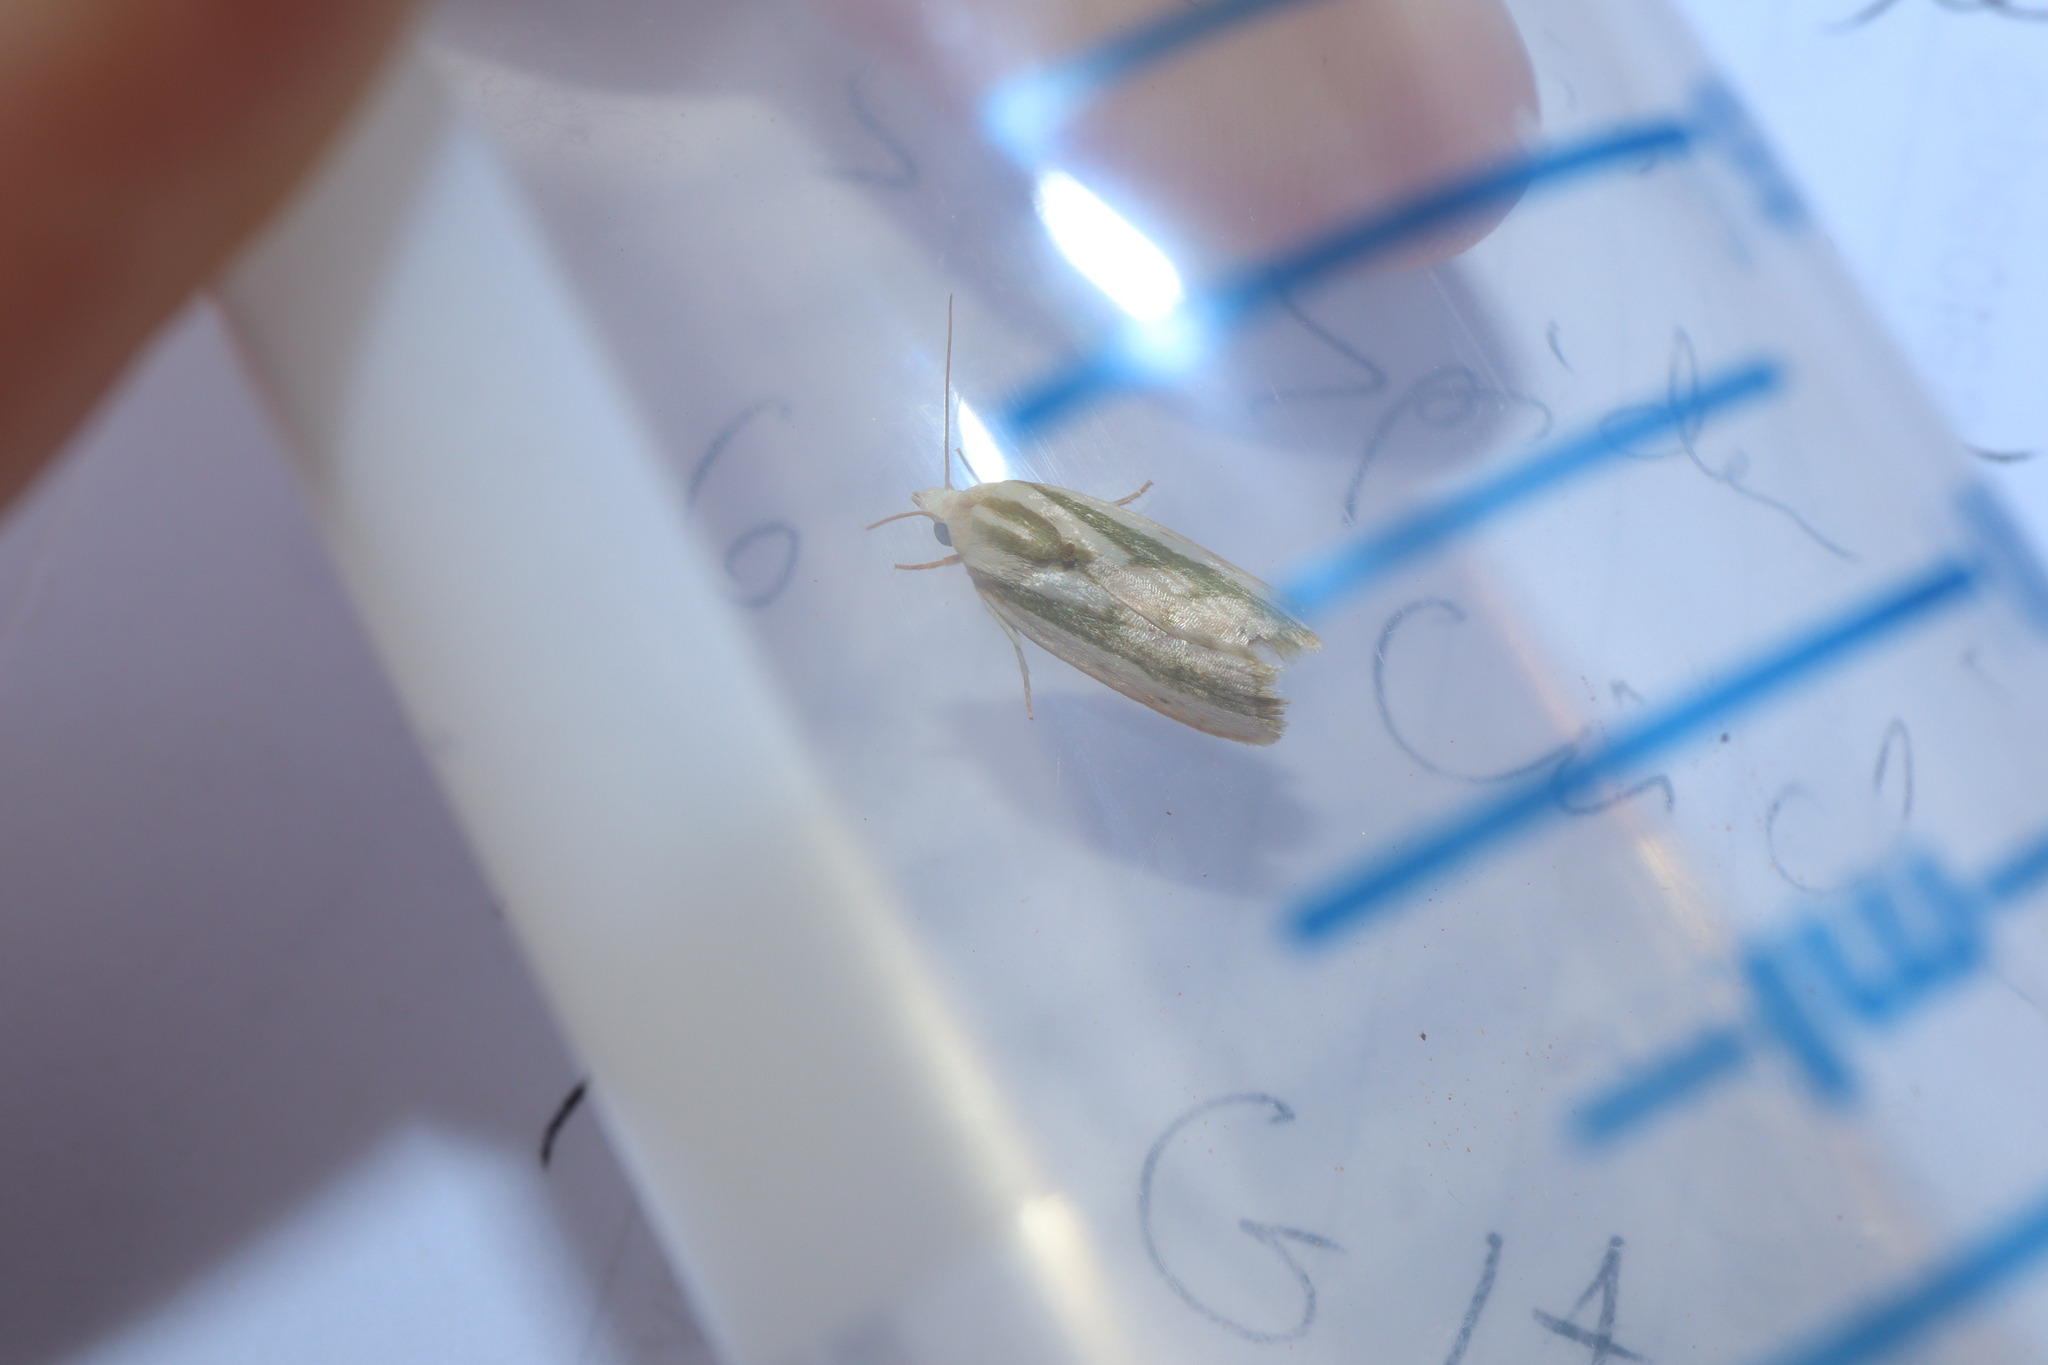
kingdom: Animalia
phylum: Arthropoda
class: Insecta
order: Lepidoptera
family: Nolidae
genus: Earias
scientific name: Earias huegeliana
